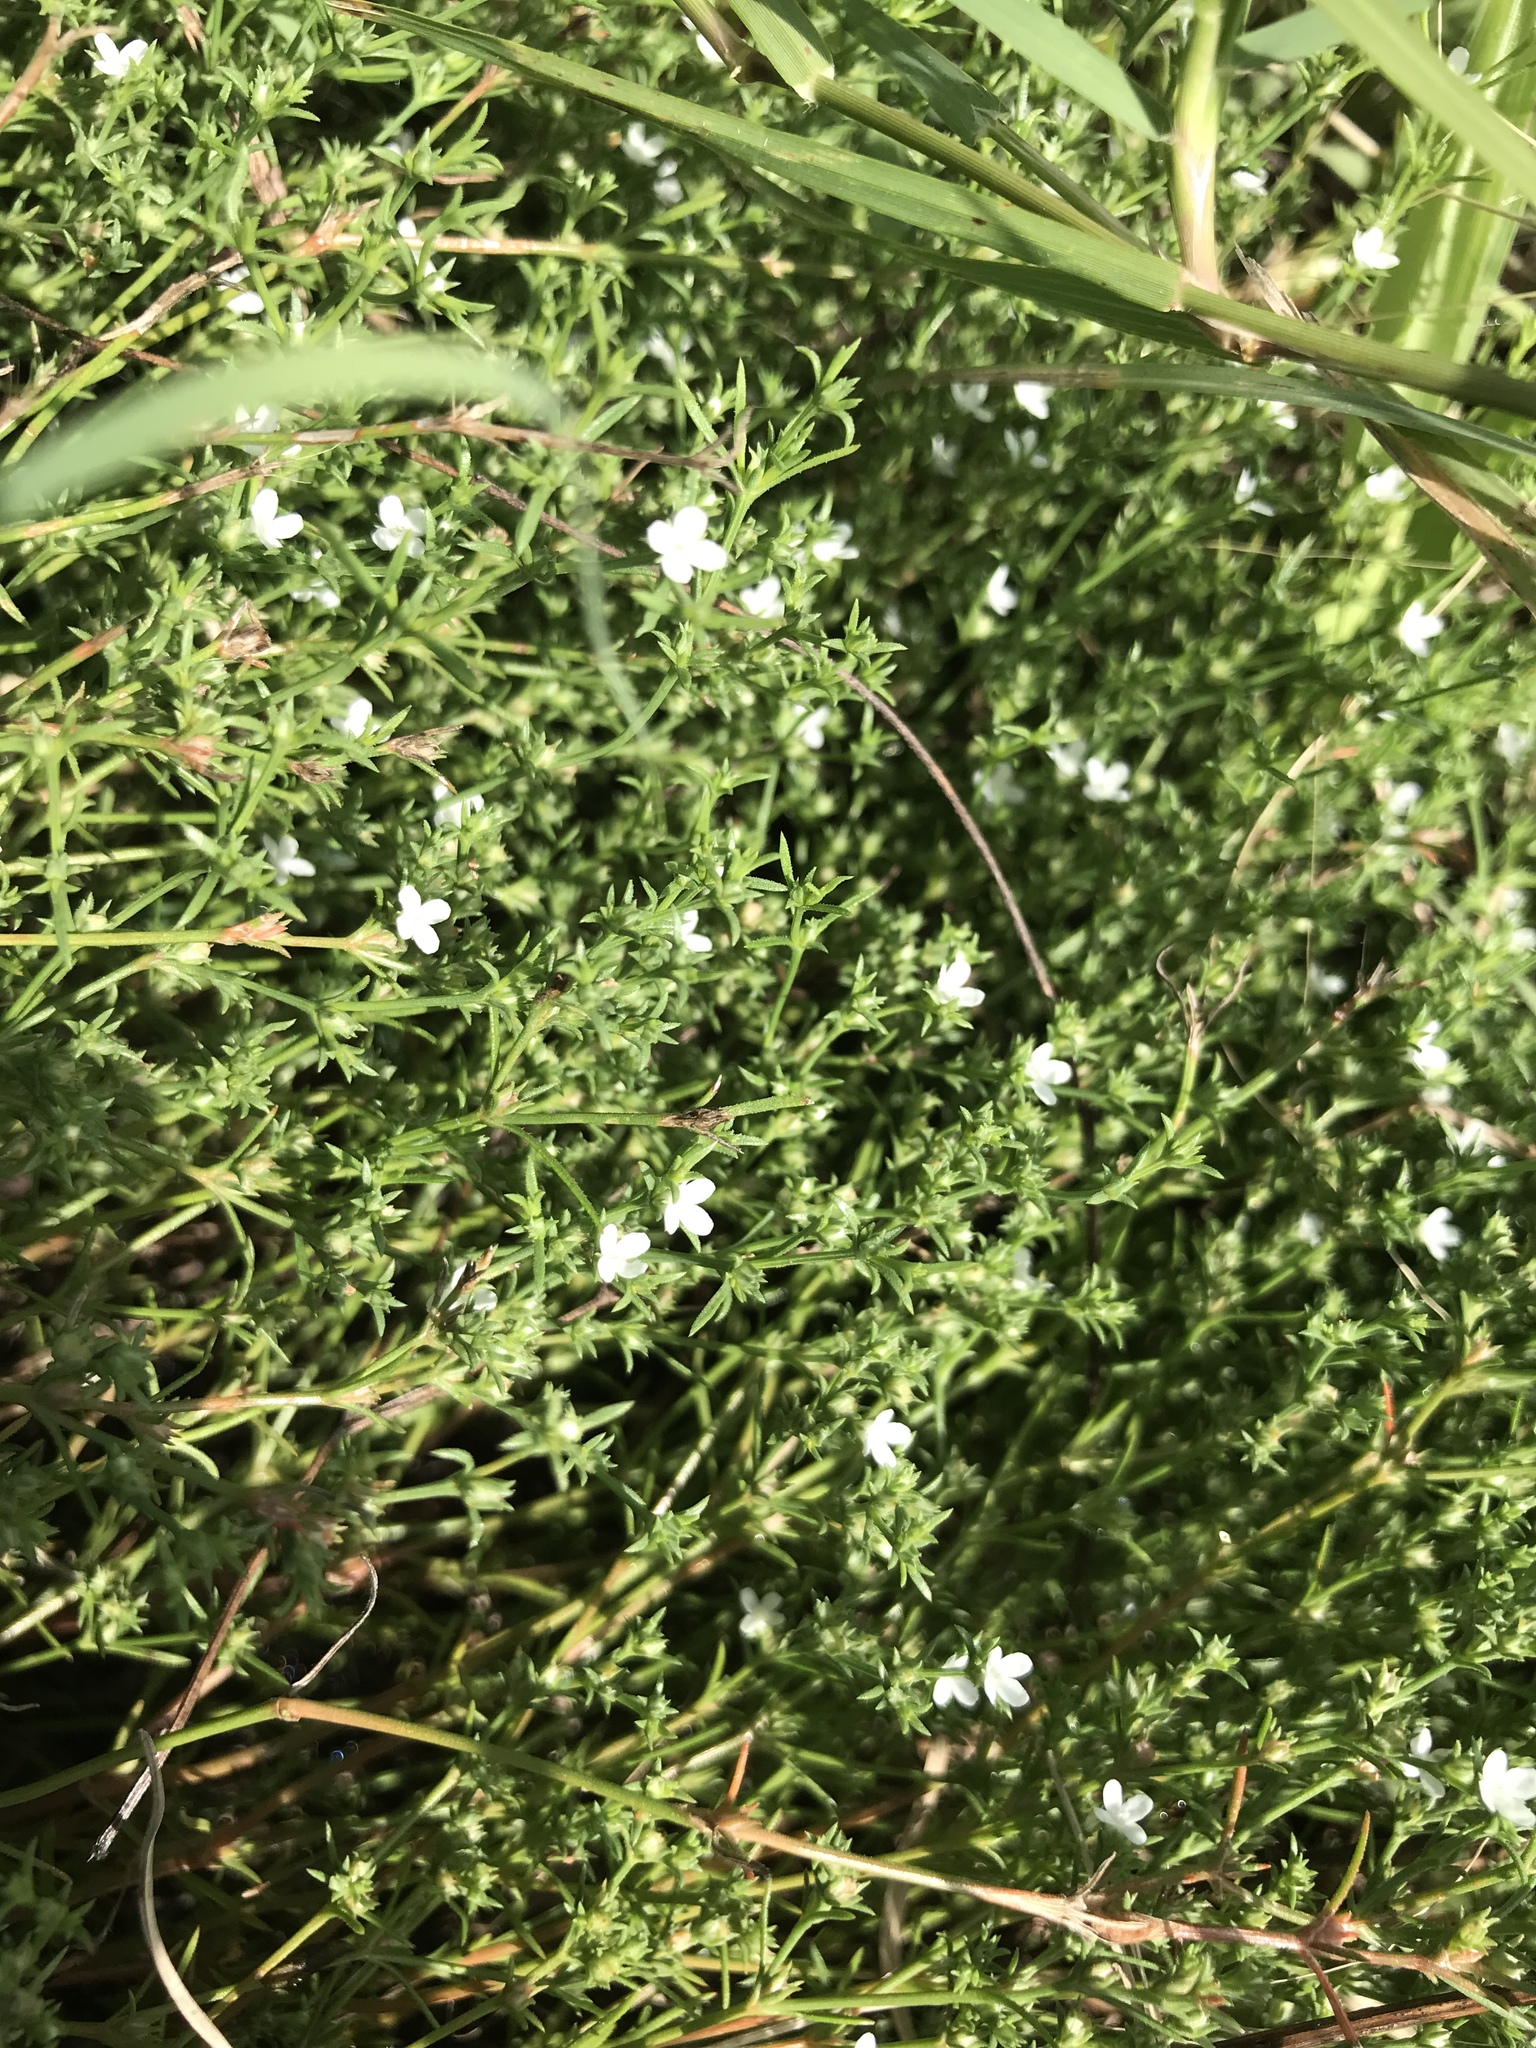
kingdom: Plantae
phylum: Tracheophyta
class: Magnoliopsida
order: Lamiales
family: Tetrachondraceae
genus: Polypremum
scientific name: Polypremum procumbens
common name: Juniper-leaf
